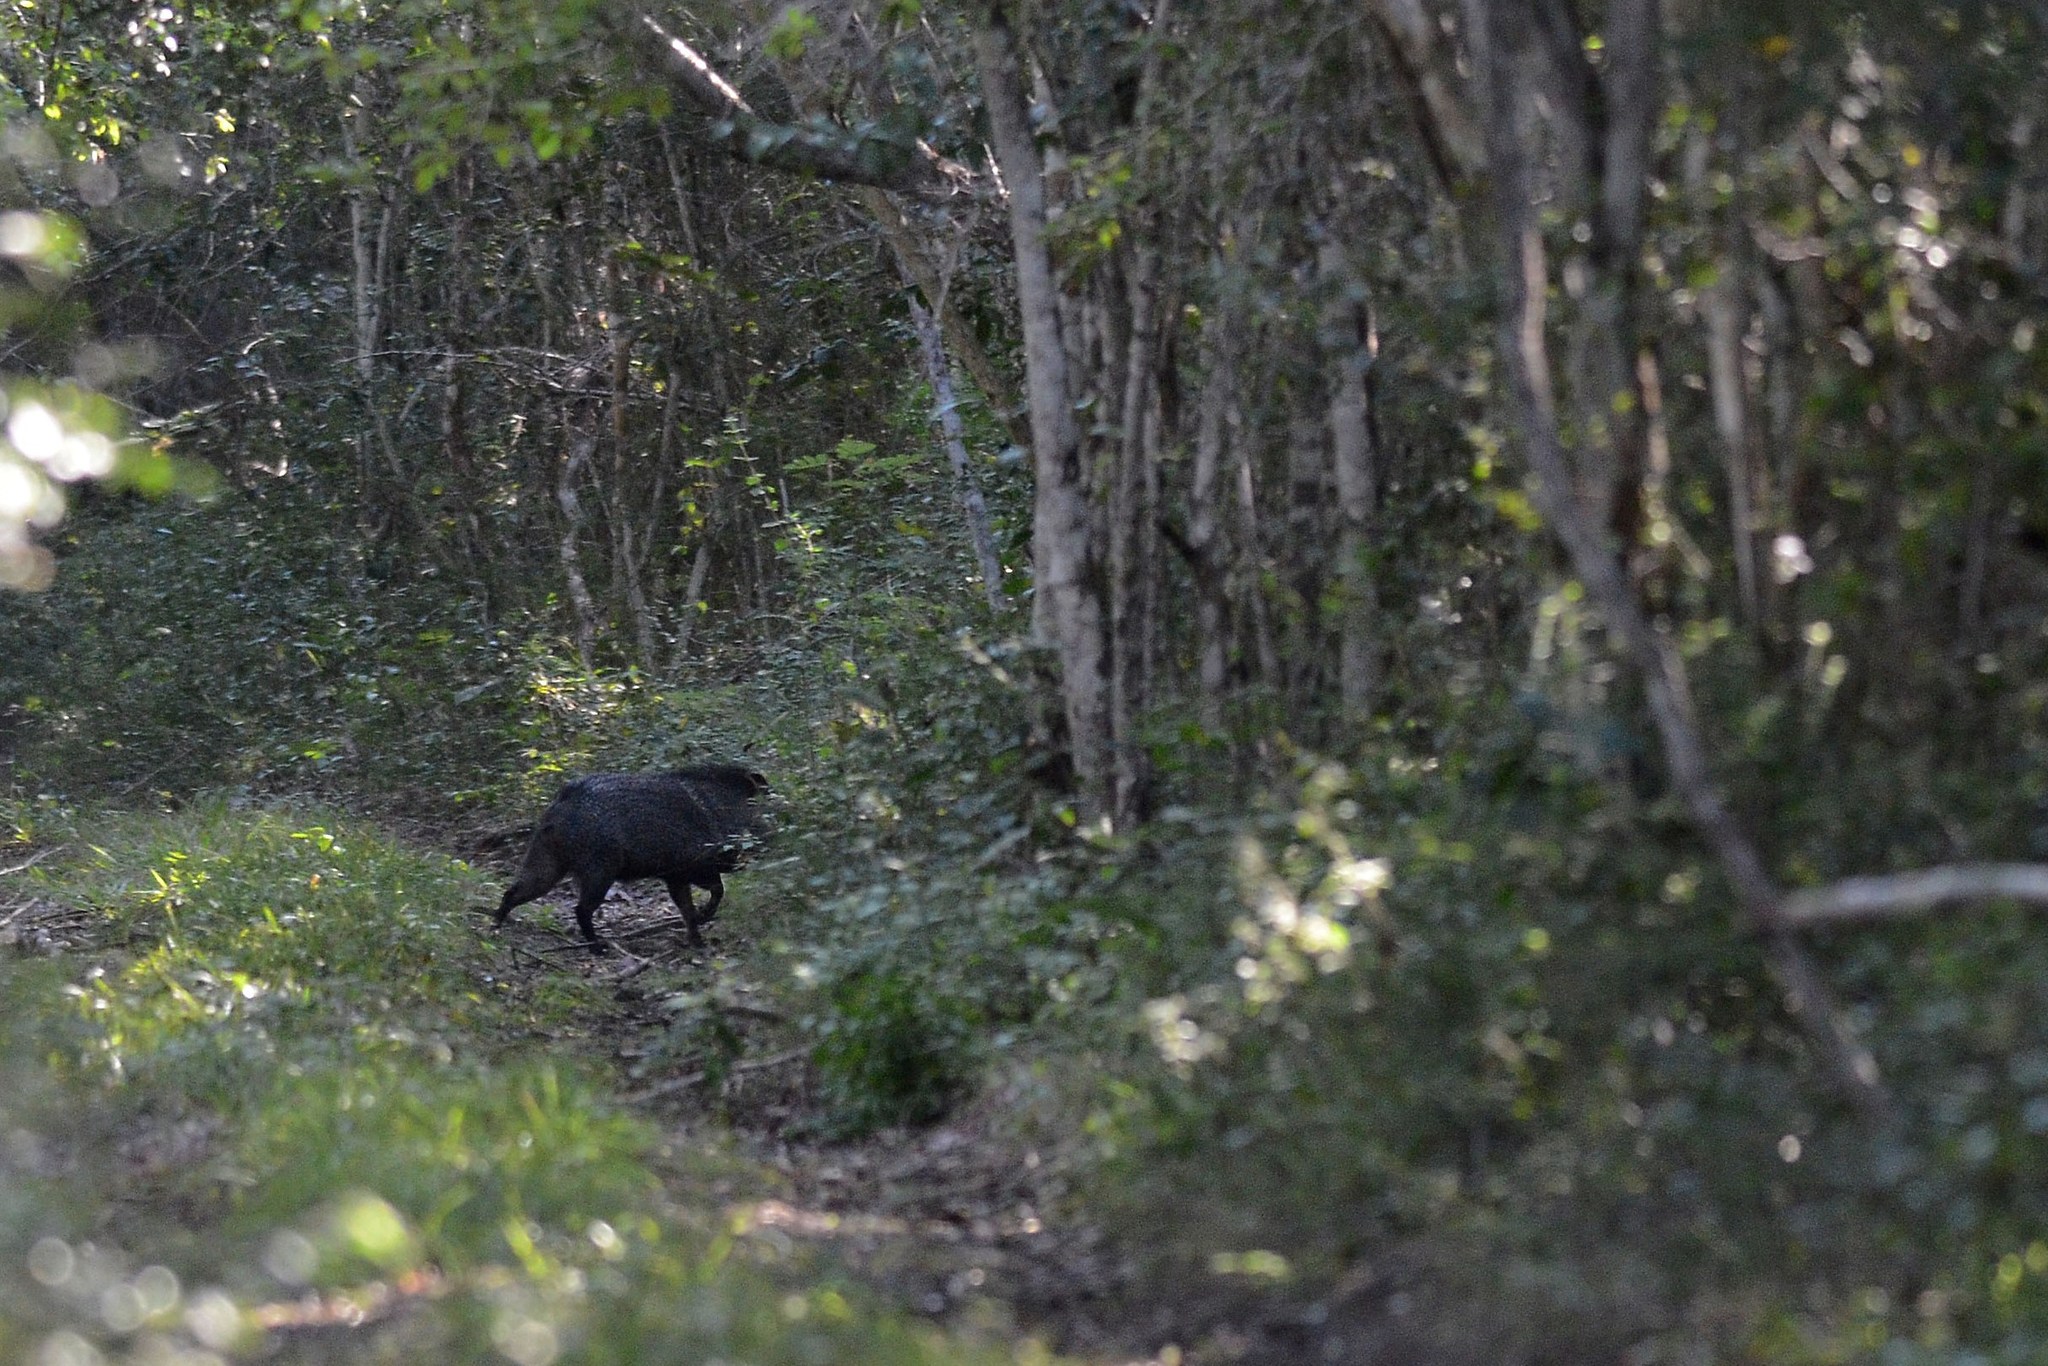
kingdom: Animalia
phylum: Chordata
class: Mammalia
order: Artiodactyla
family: Tayassuidae
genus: Pecari
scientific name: Pecari tajacu
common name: Collared peccary
